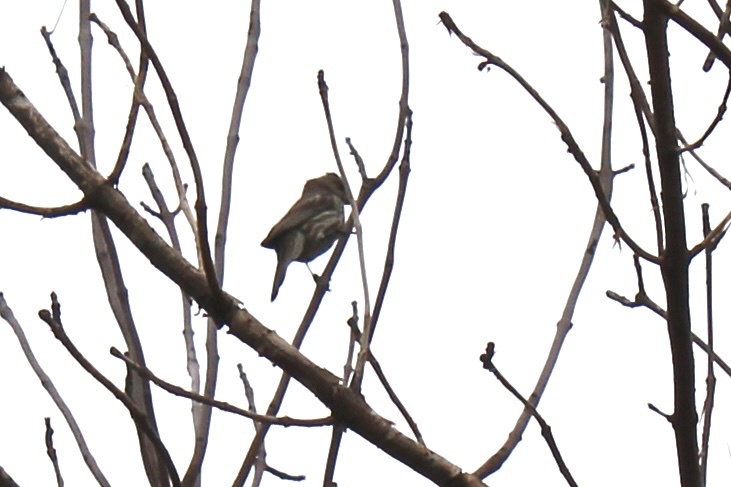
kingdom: Animalia
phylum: Chordata
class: Aves
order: Passeriformes
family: Fringillidae
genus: Haemorhous
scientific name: Haemorhous mexicanus
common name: House finch
